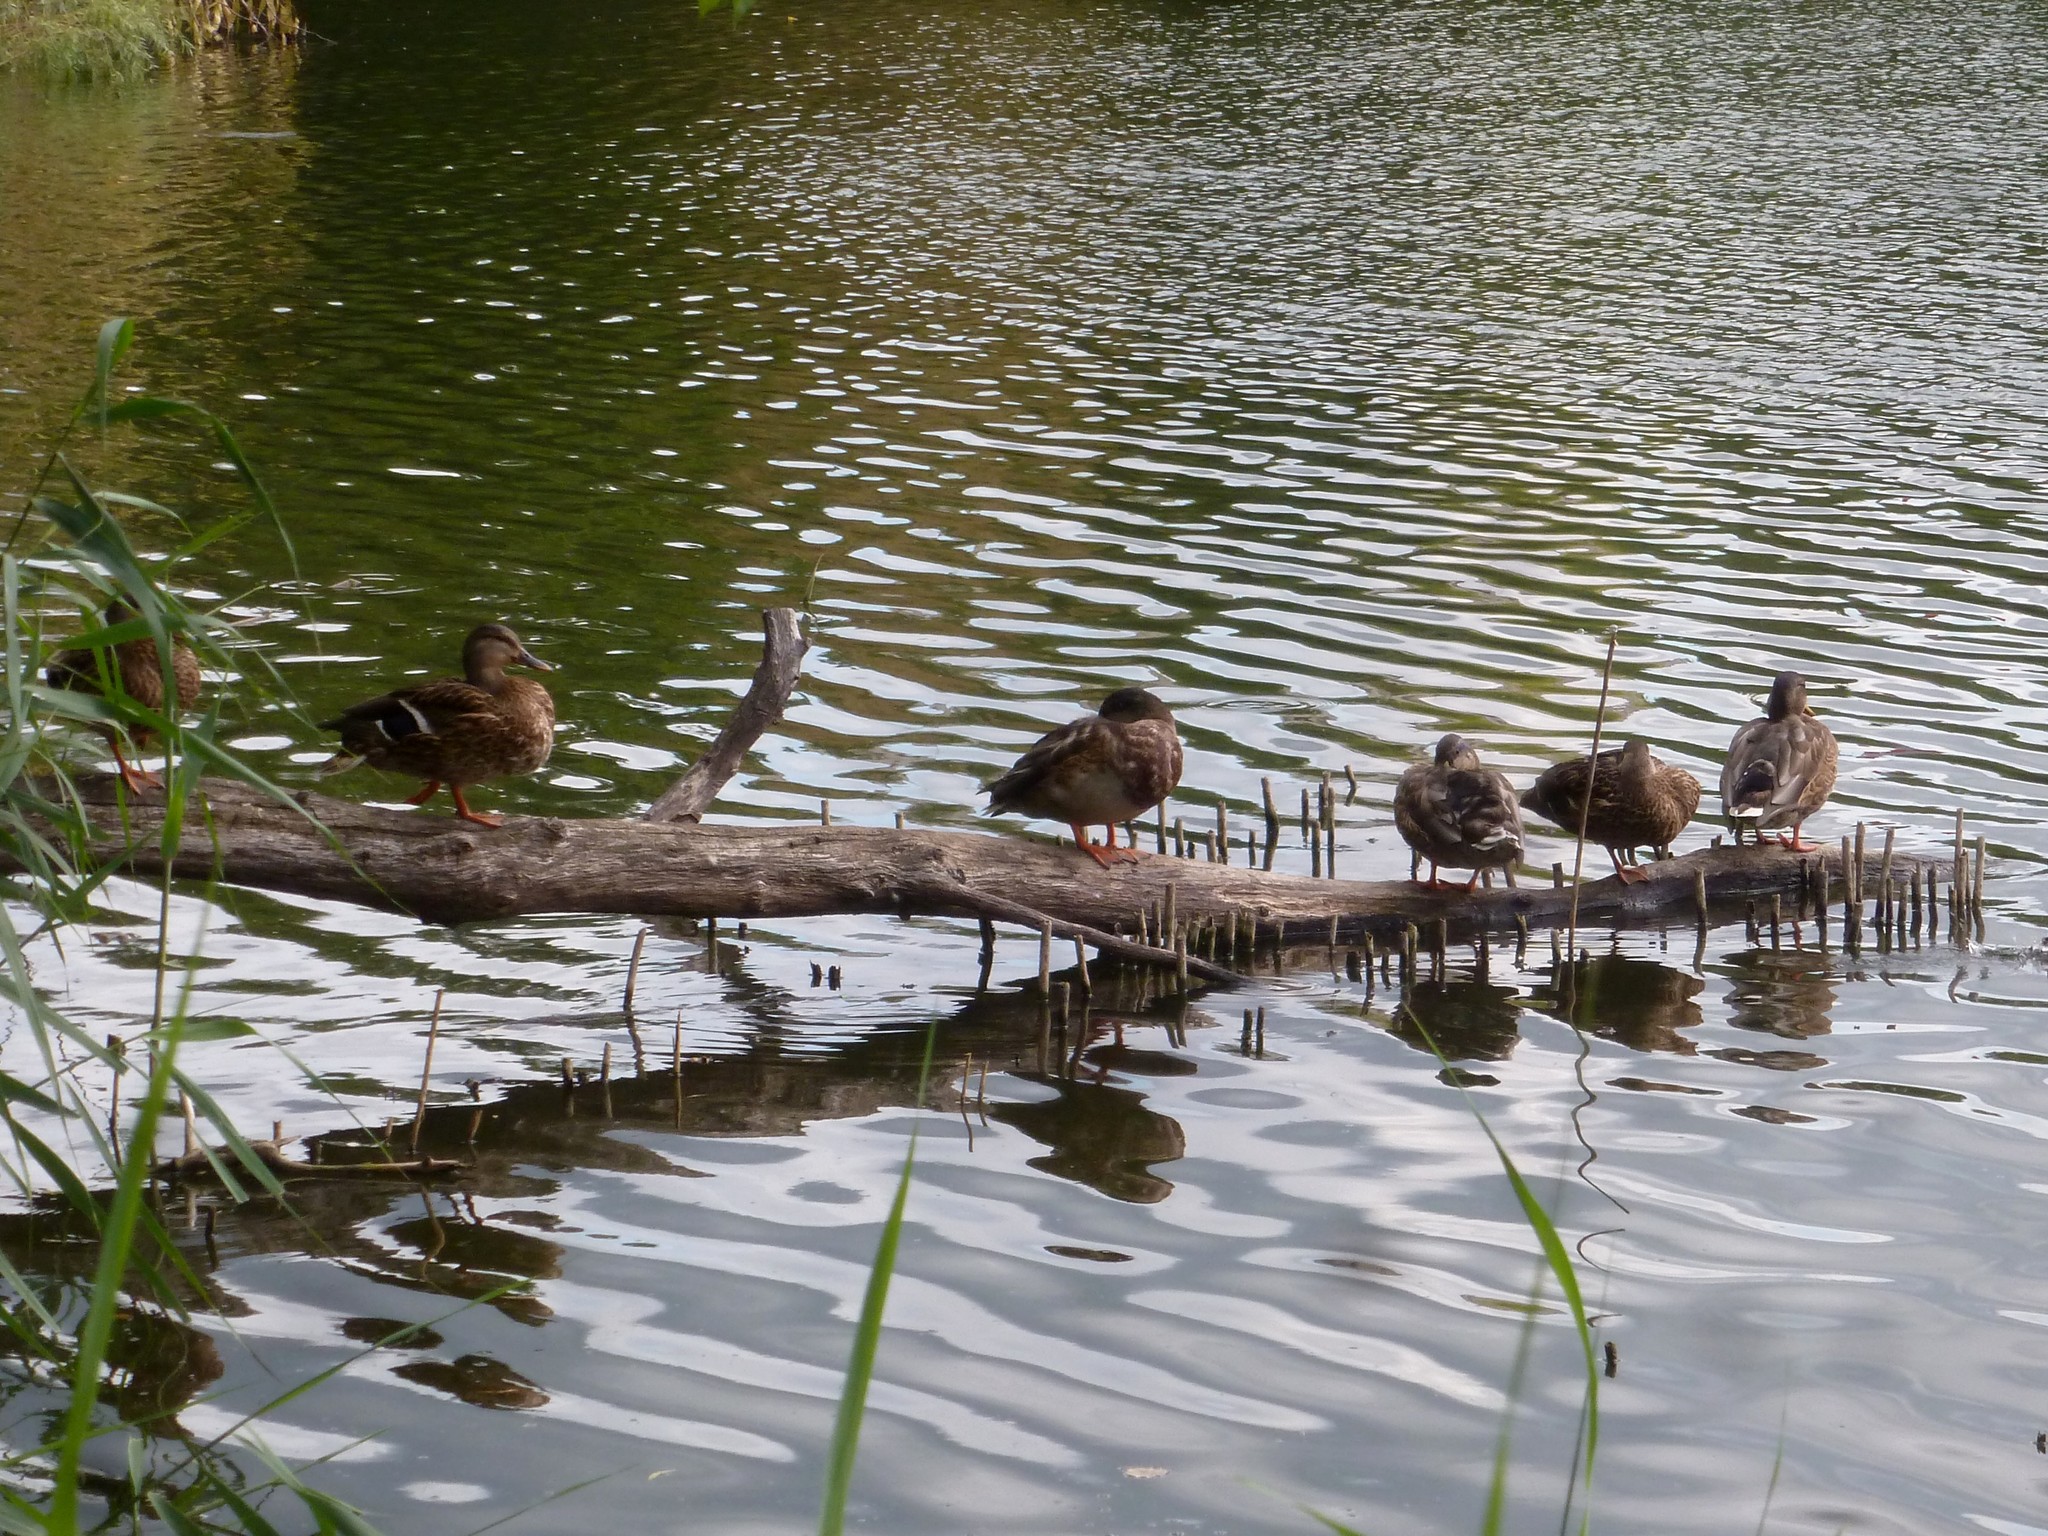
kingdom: Animalia
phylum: Chordata
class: Aves
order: Anseriformes
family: Anatidae
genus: Anas
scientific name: Anas platyrhynchos
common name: Mallard
